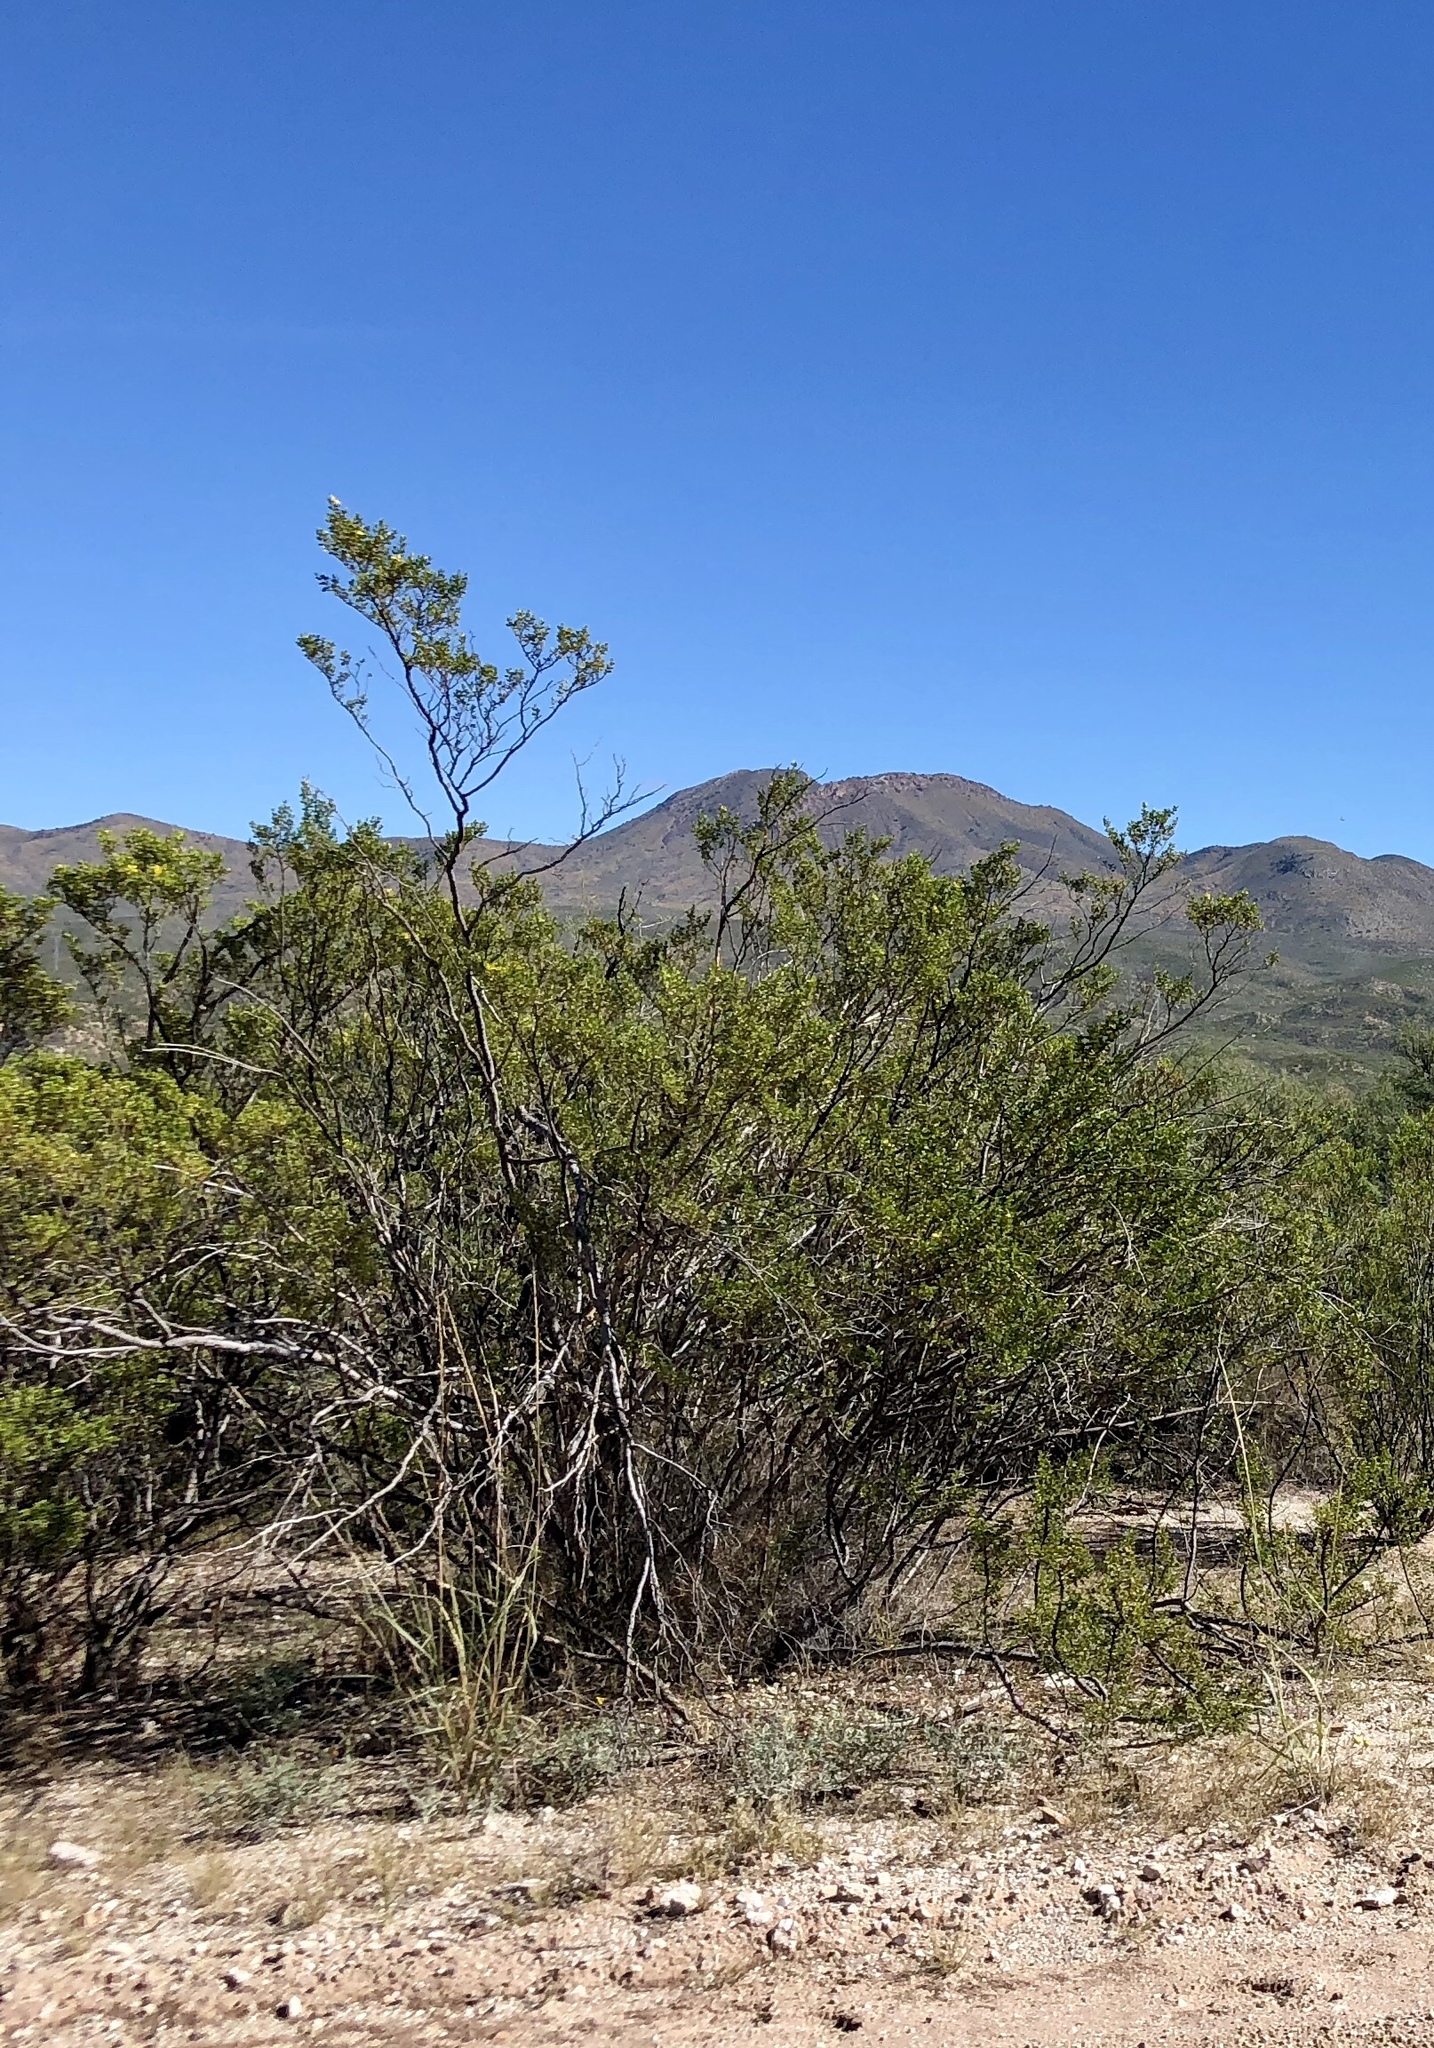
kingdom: Plantae
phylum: Tracheophyta
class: Magnoliopsida
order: Zygophyllales
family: Zygophyllaceae
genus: Larrea
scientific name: Larrea tridentata
